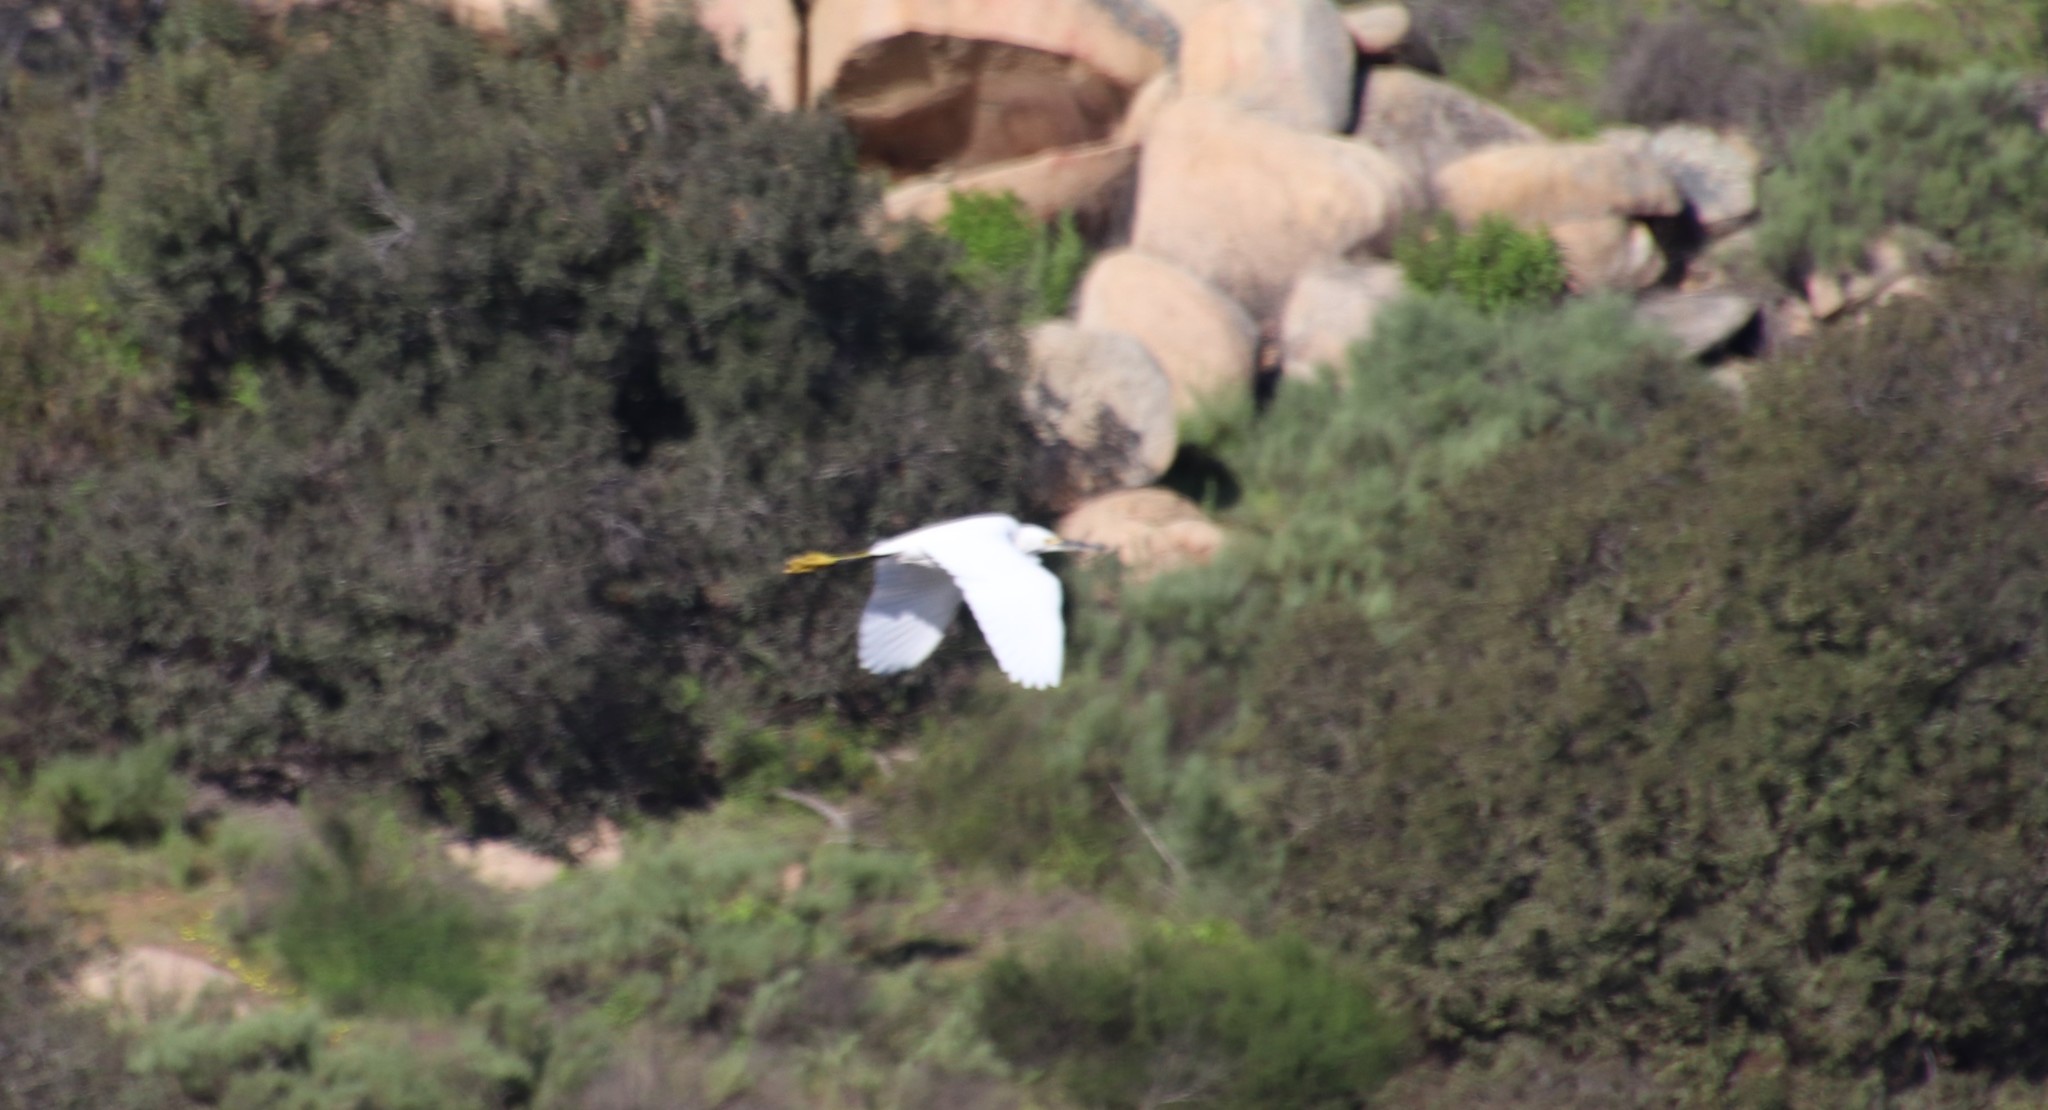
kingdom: Animalia
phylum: Chordata
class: Aves
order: Pelecaniformes
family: Ardeidae
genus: Egretta
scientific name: Egretta thula
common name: Snowy egret
